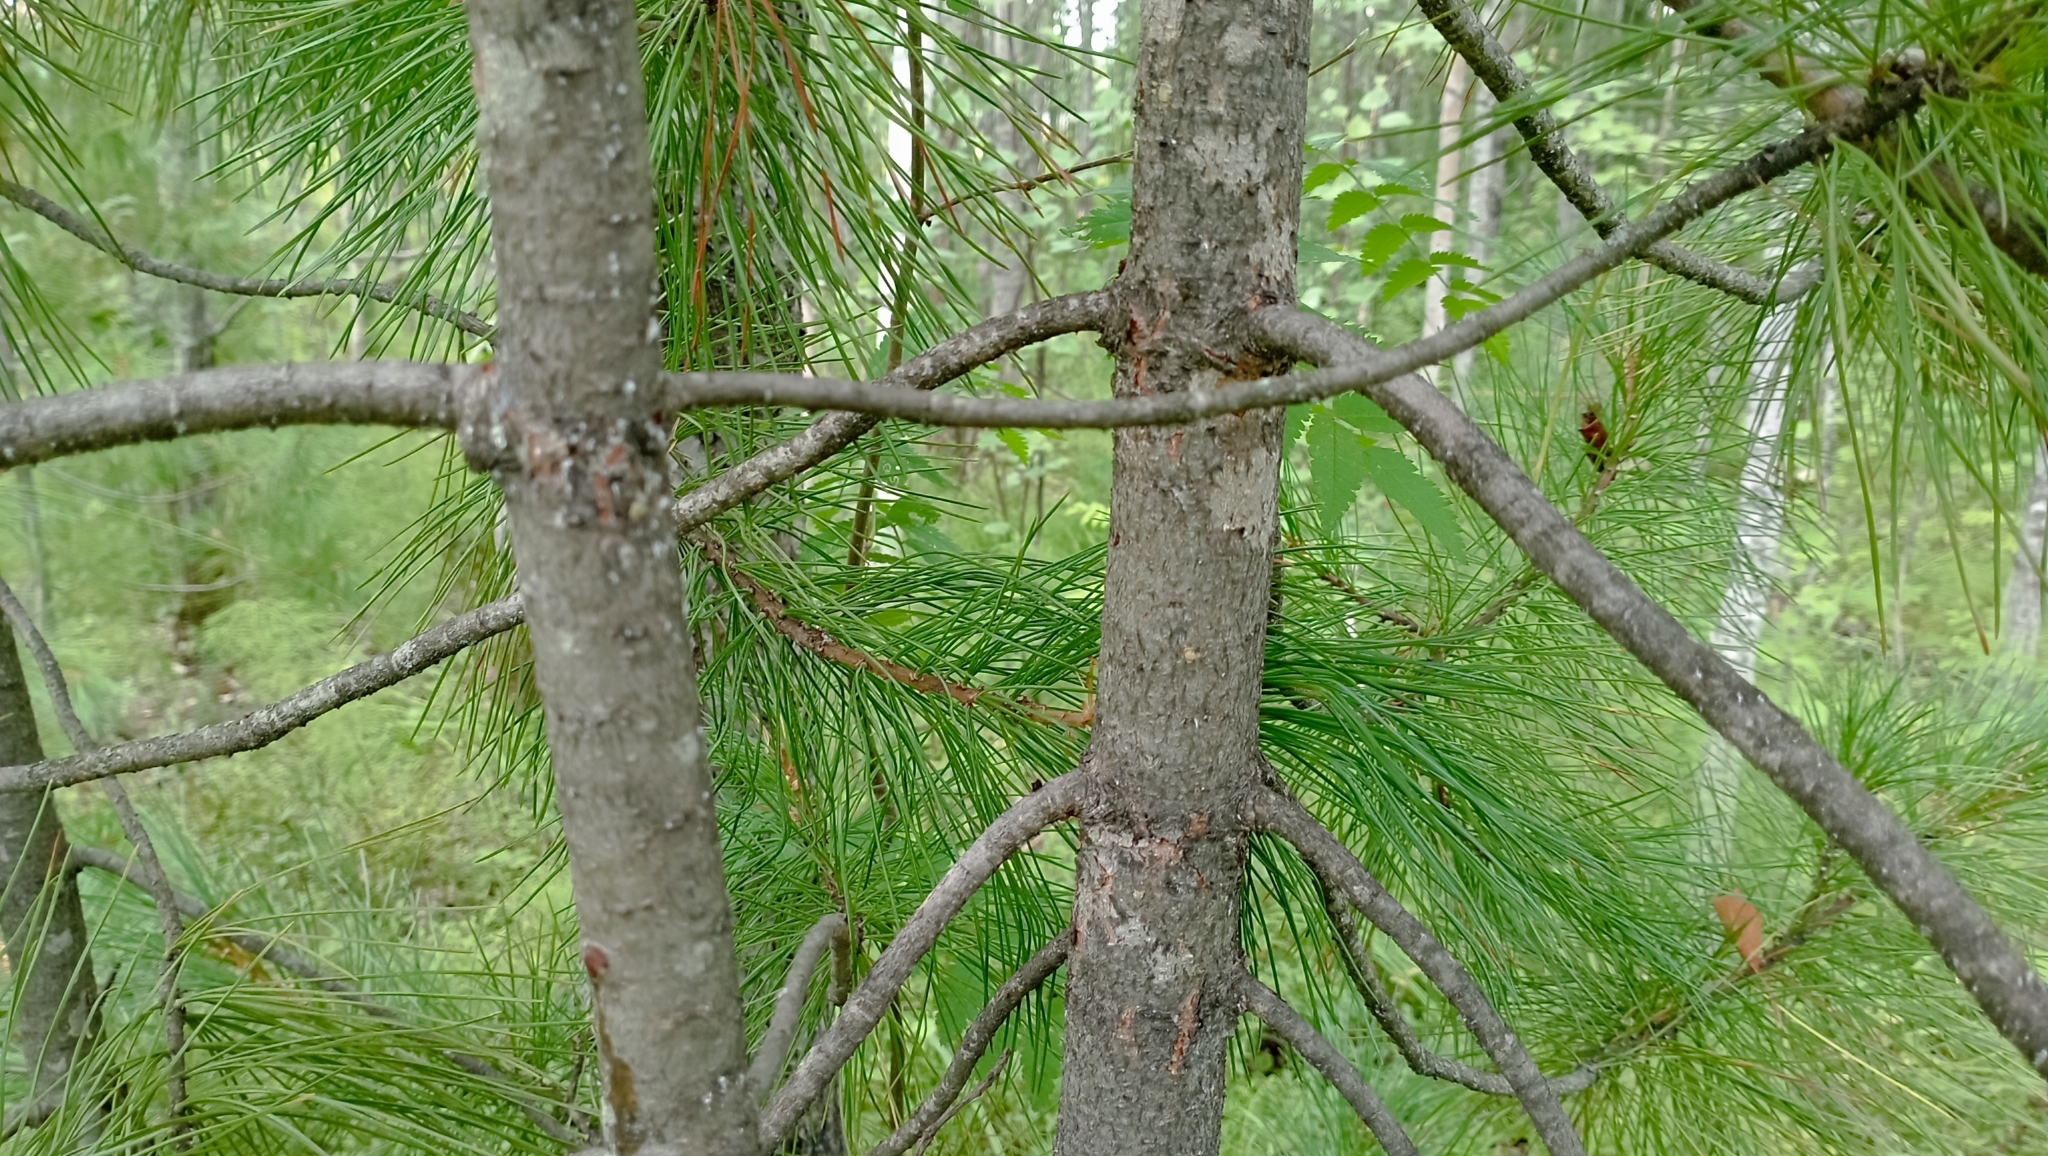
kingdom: Plantae
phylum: Tracheophyta
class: Pinopsida
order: Pinales
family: Pinaceae
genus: Pinus
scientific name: Pinus sibirica
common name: Siberian pine
